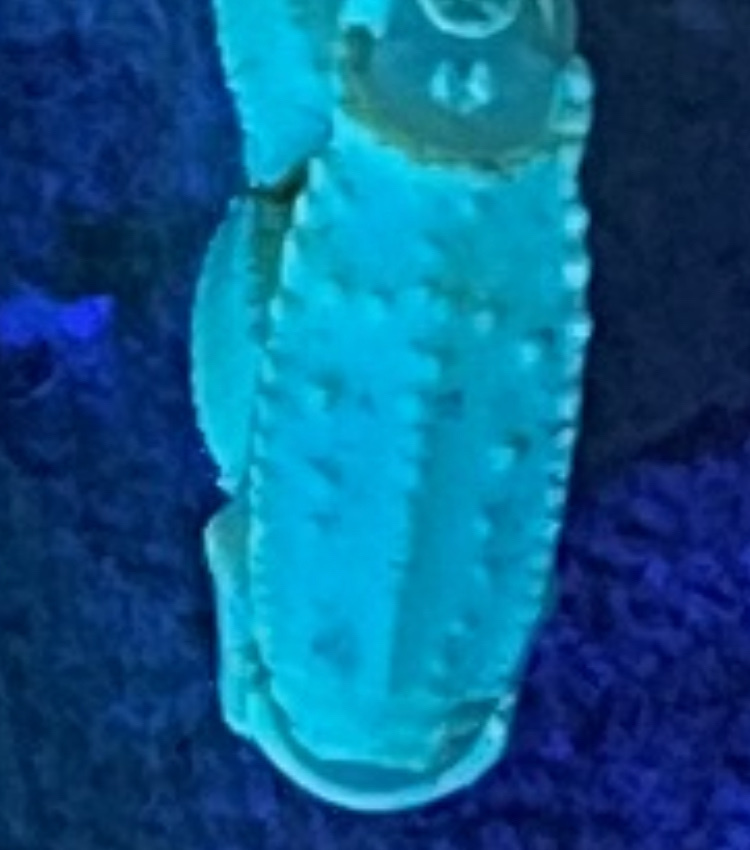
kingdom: Animalia
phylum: Arthropoda
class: Arachnida
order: Scorpiones
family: Buthidae
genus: Olivierus
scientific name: Olivierus parthorum
